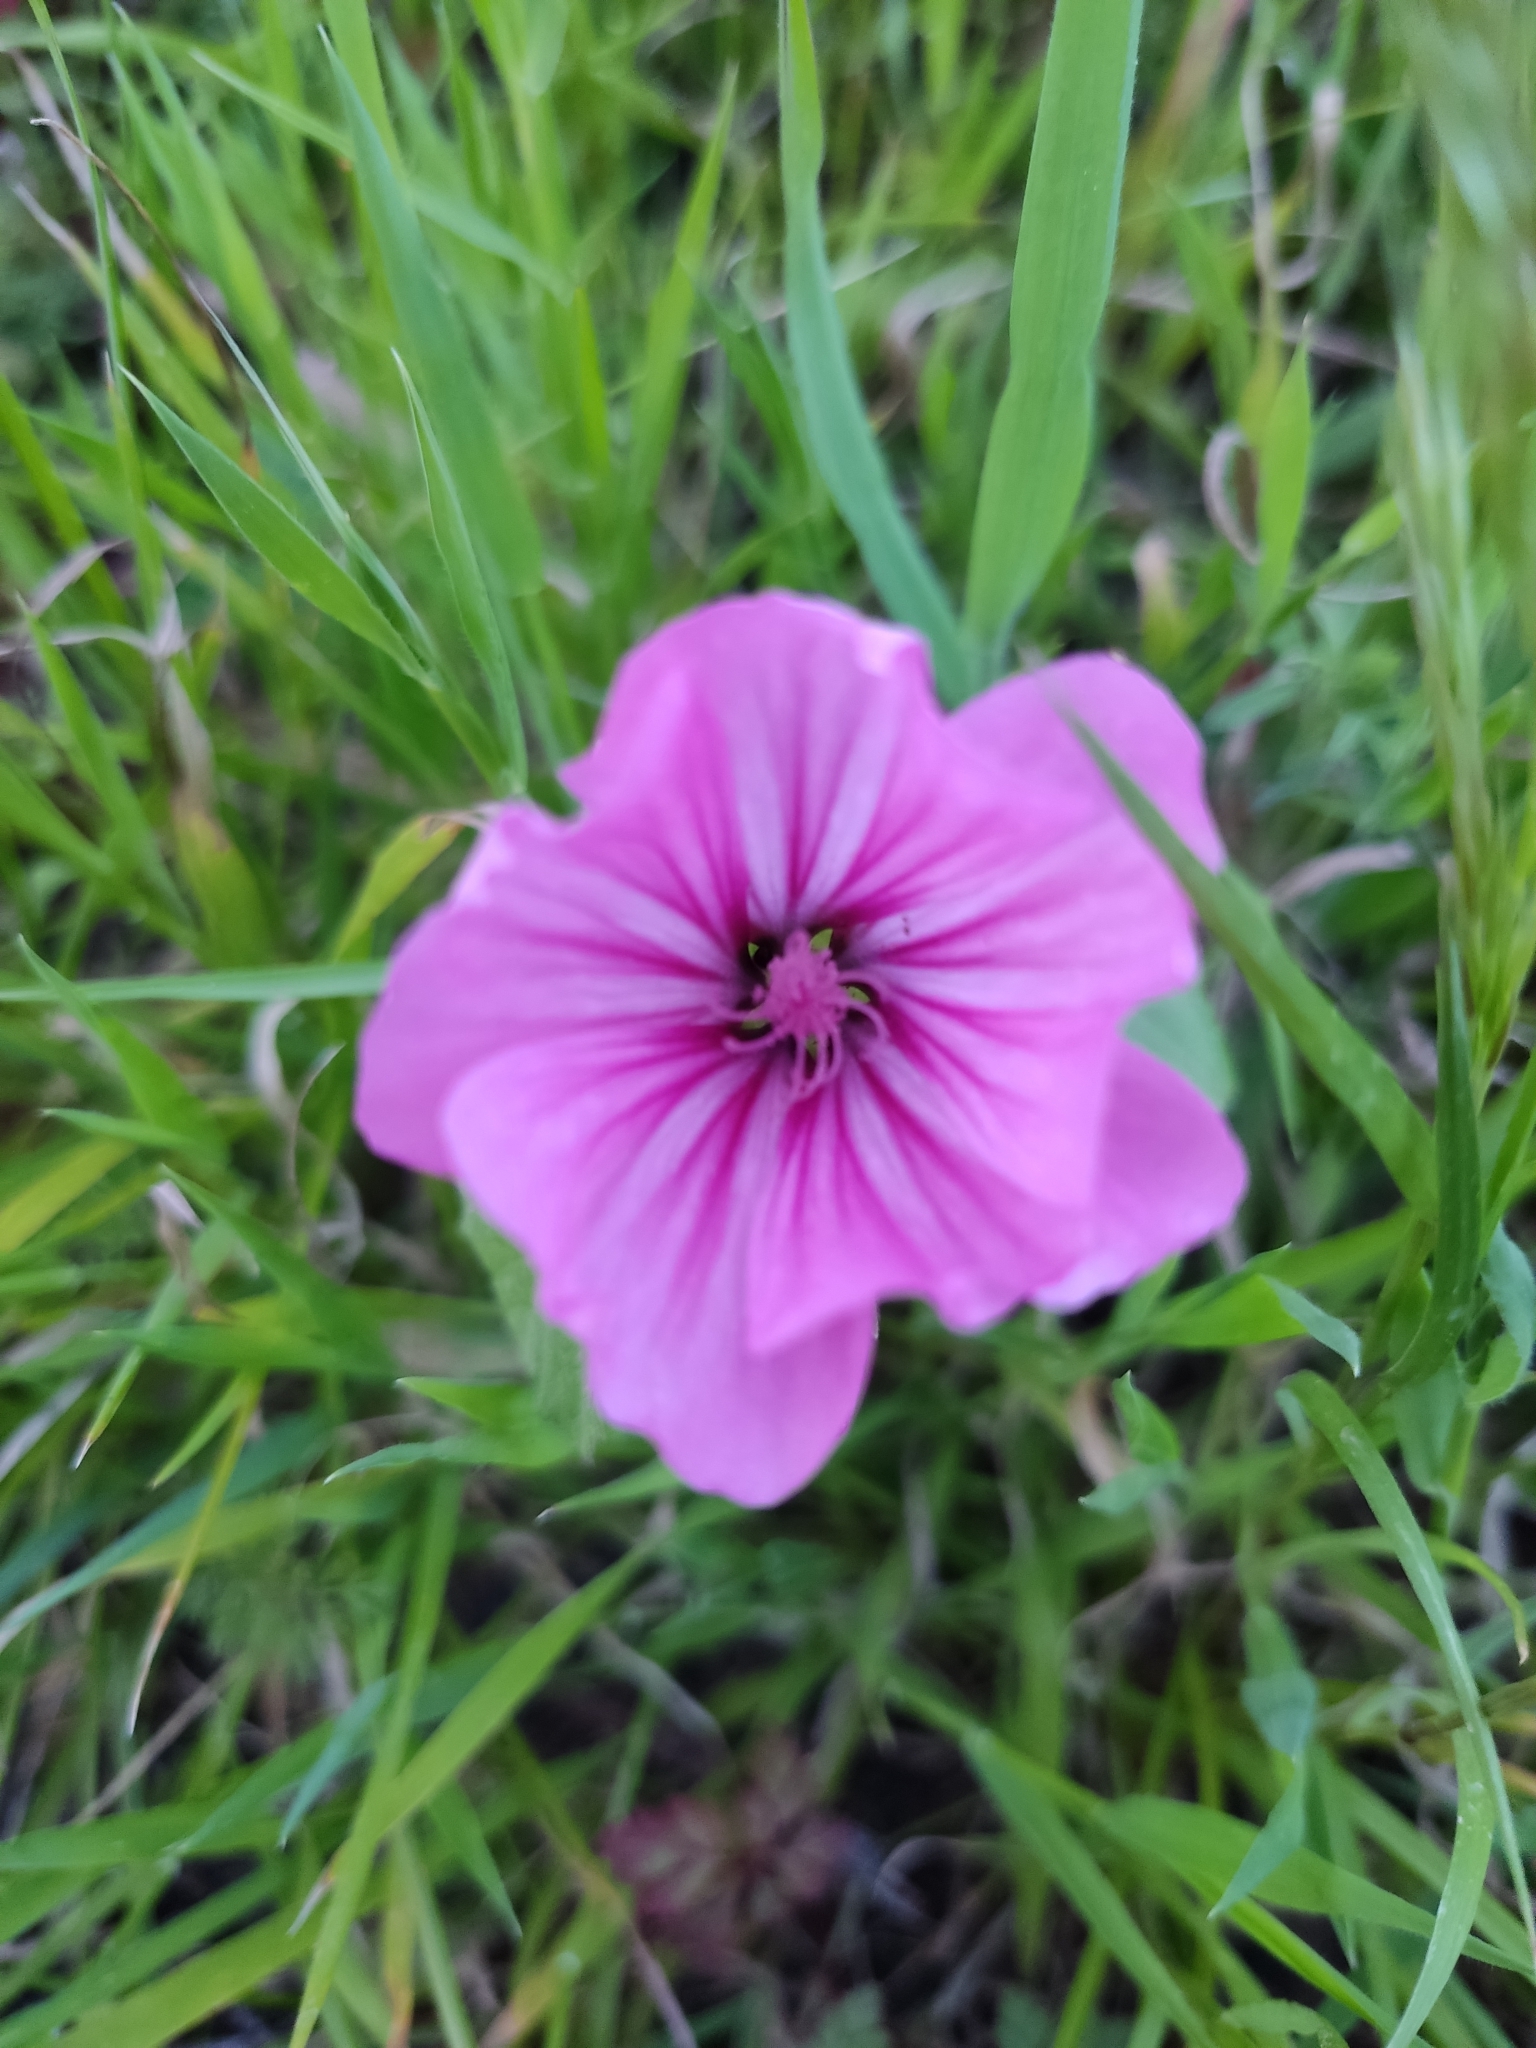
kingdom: Plantae
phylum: Tracheophyta
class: Magnoliopsida
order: Malvales
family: Malvaceae
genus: Malva
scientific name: Malva trimestris
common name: Royal mallow
